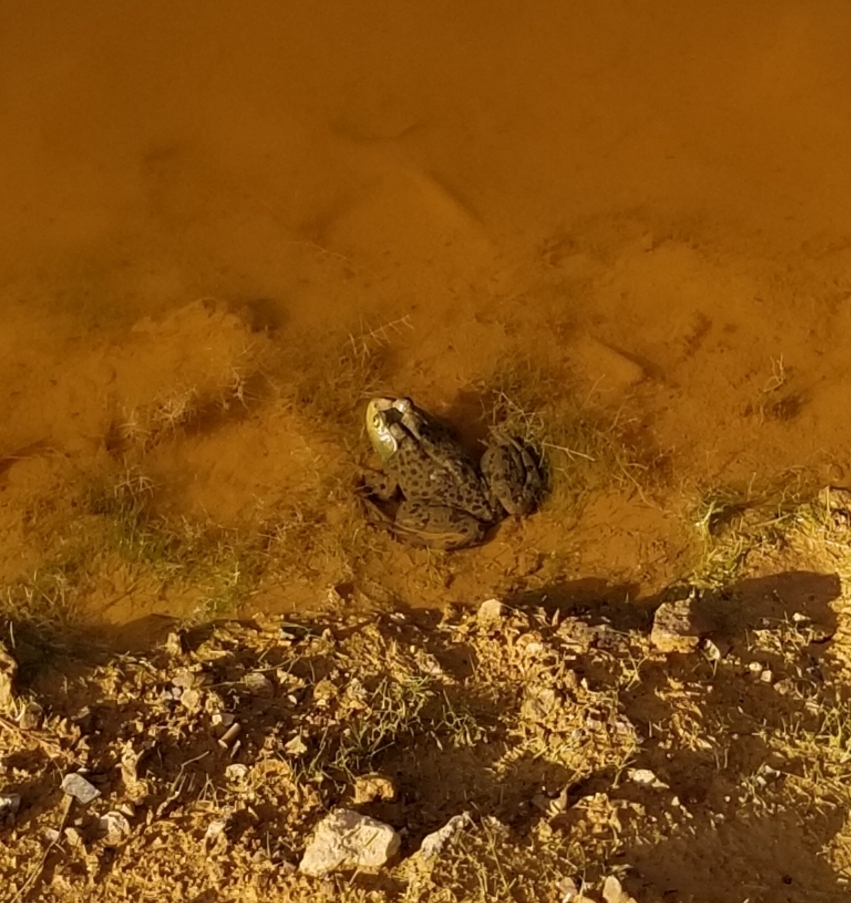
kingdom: Animalia
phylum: Chordata
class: Amphibia
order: Anura
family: Ranidae
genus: Lithobates
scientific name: Lithobates catesbeianus
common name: American bullfrog
